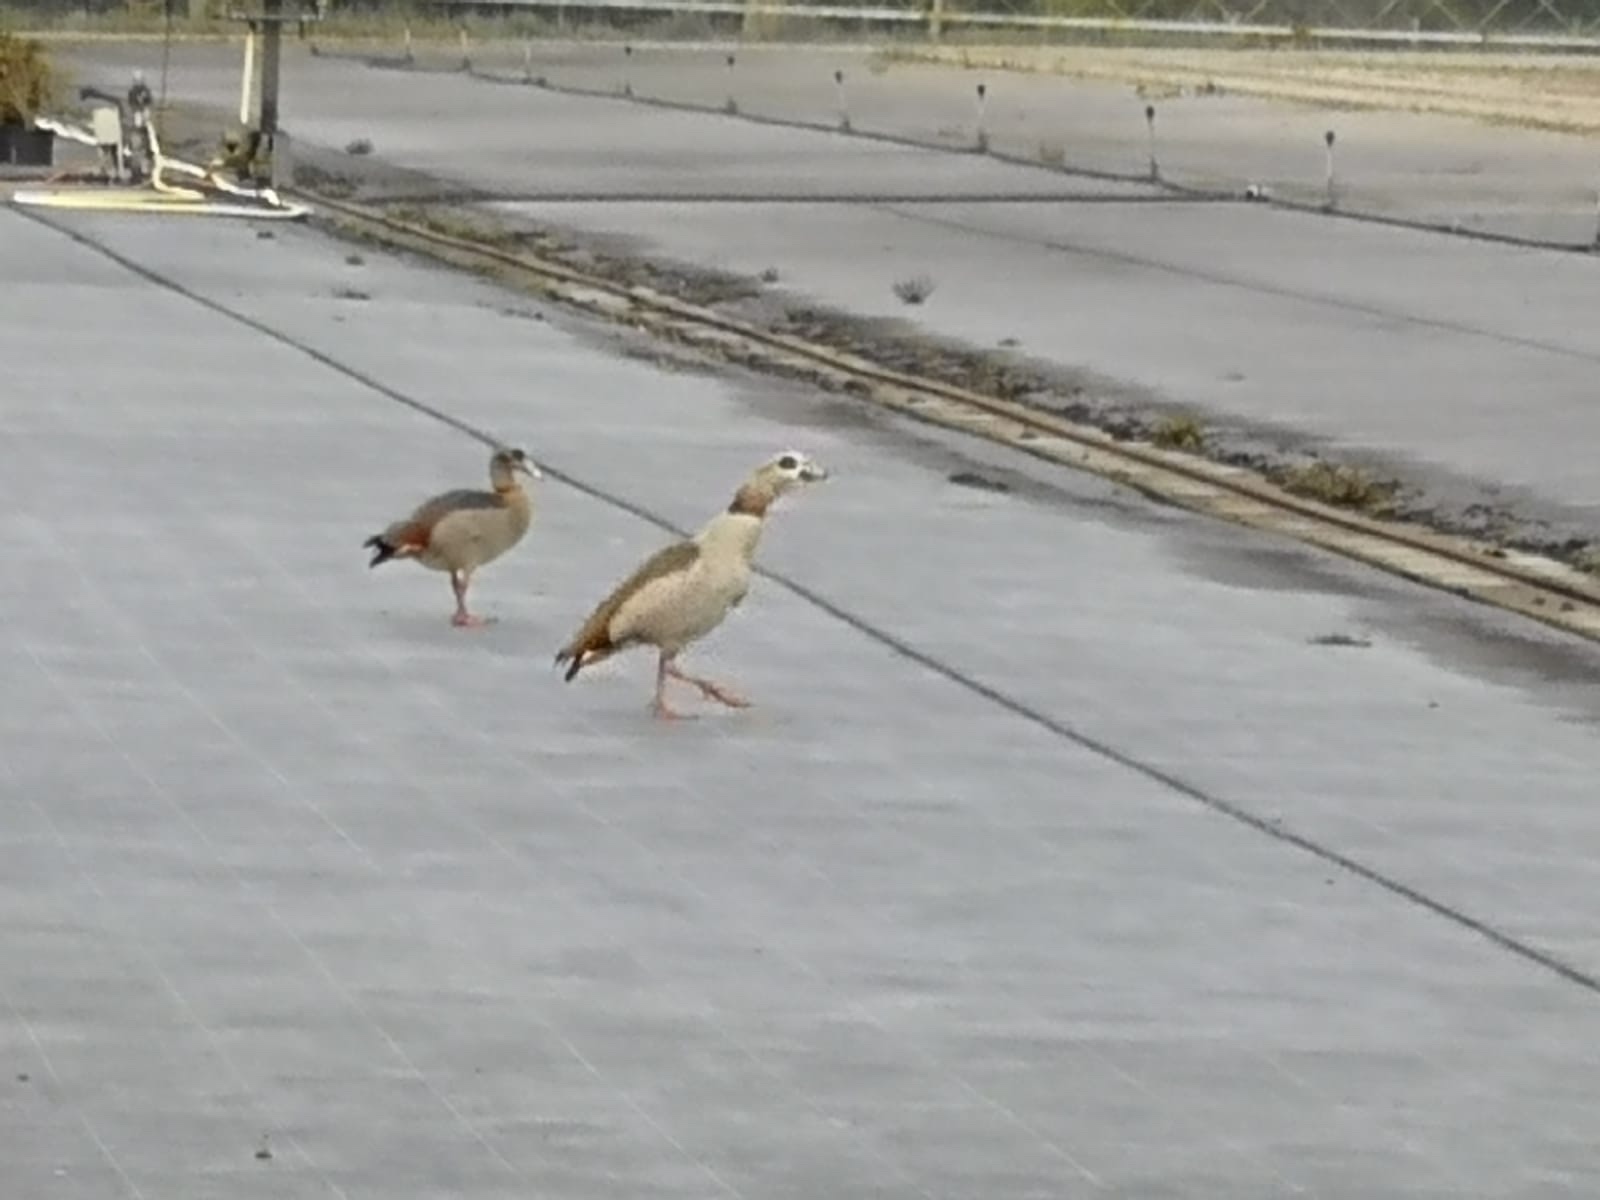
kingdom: Animalia
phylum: Chordata
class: Aves
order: Anseriformes
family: Anatidae
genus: Alopochen
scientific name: Alopochen aegyptiaca
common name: Egyptian goose
